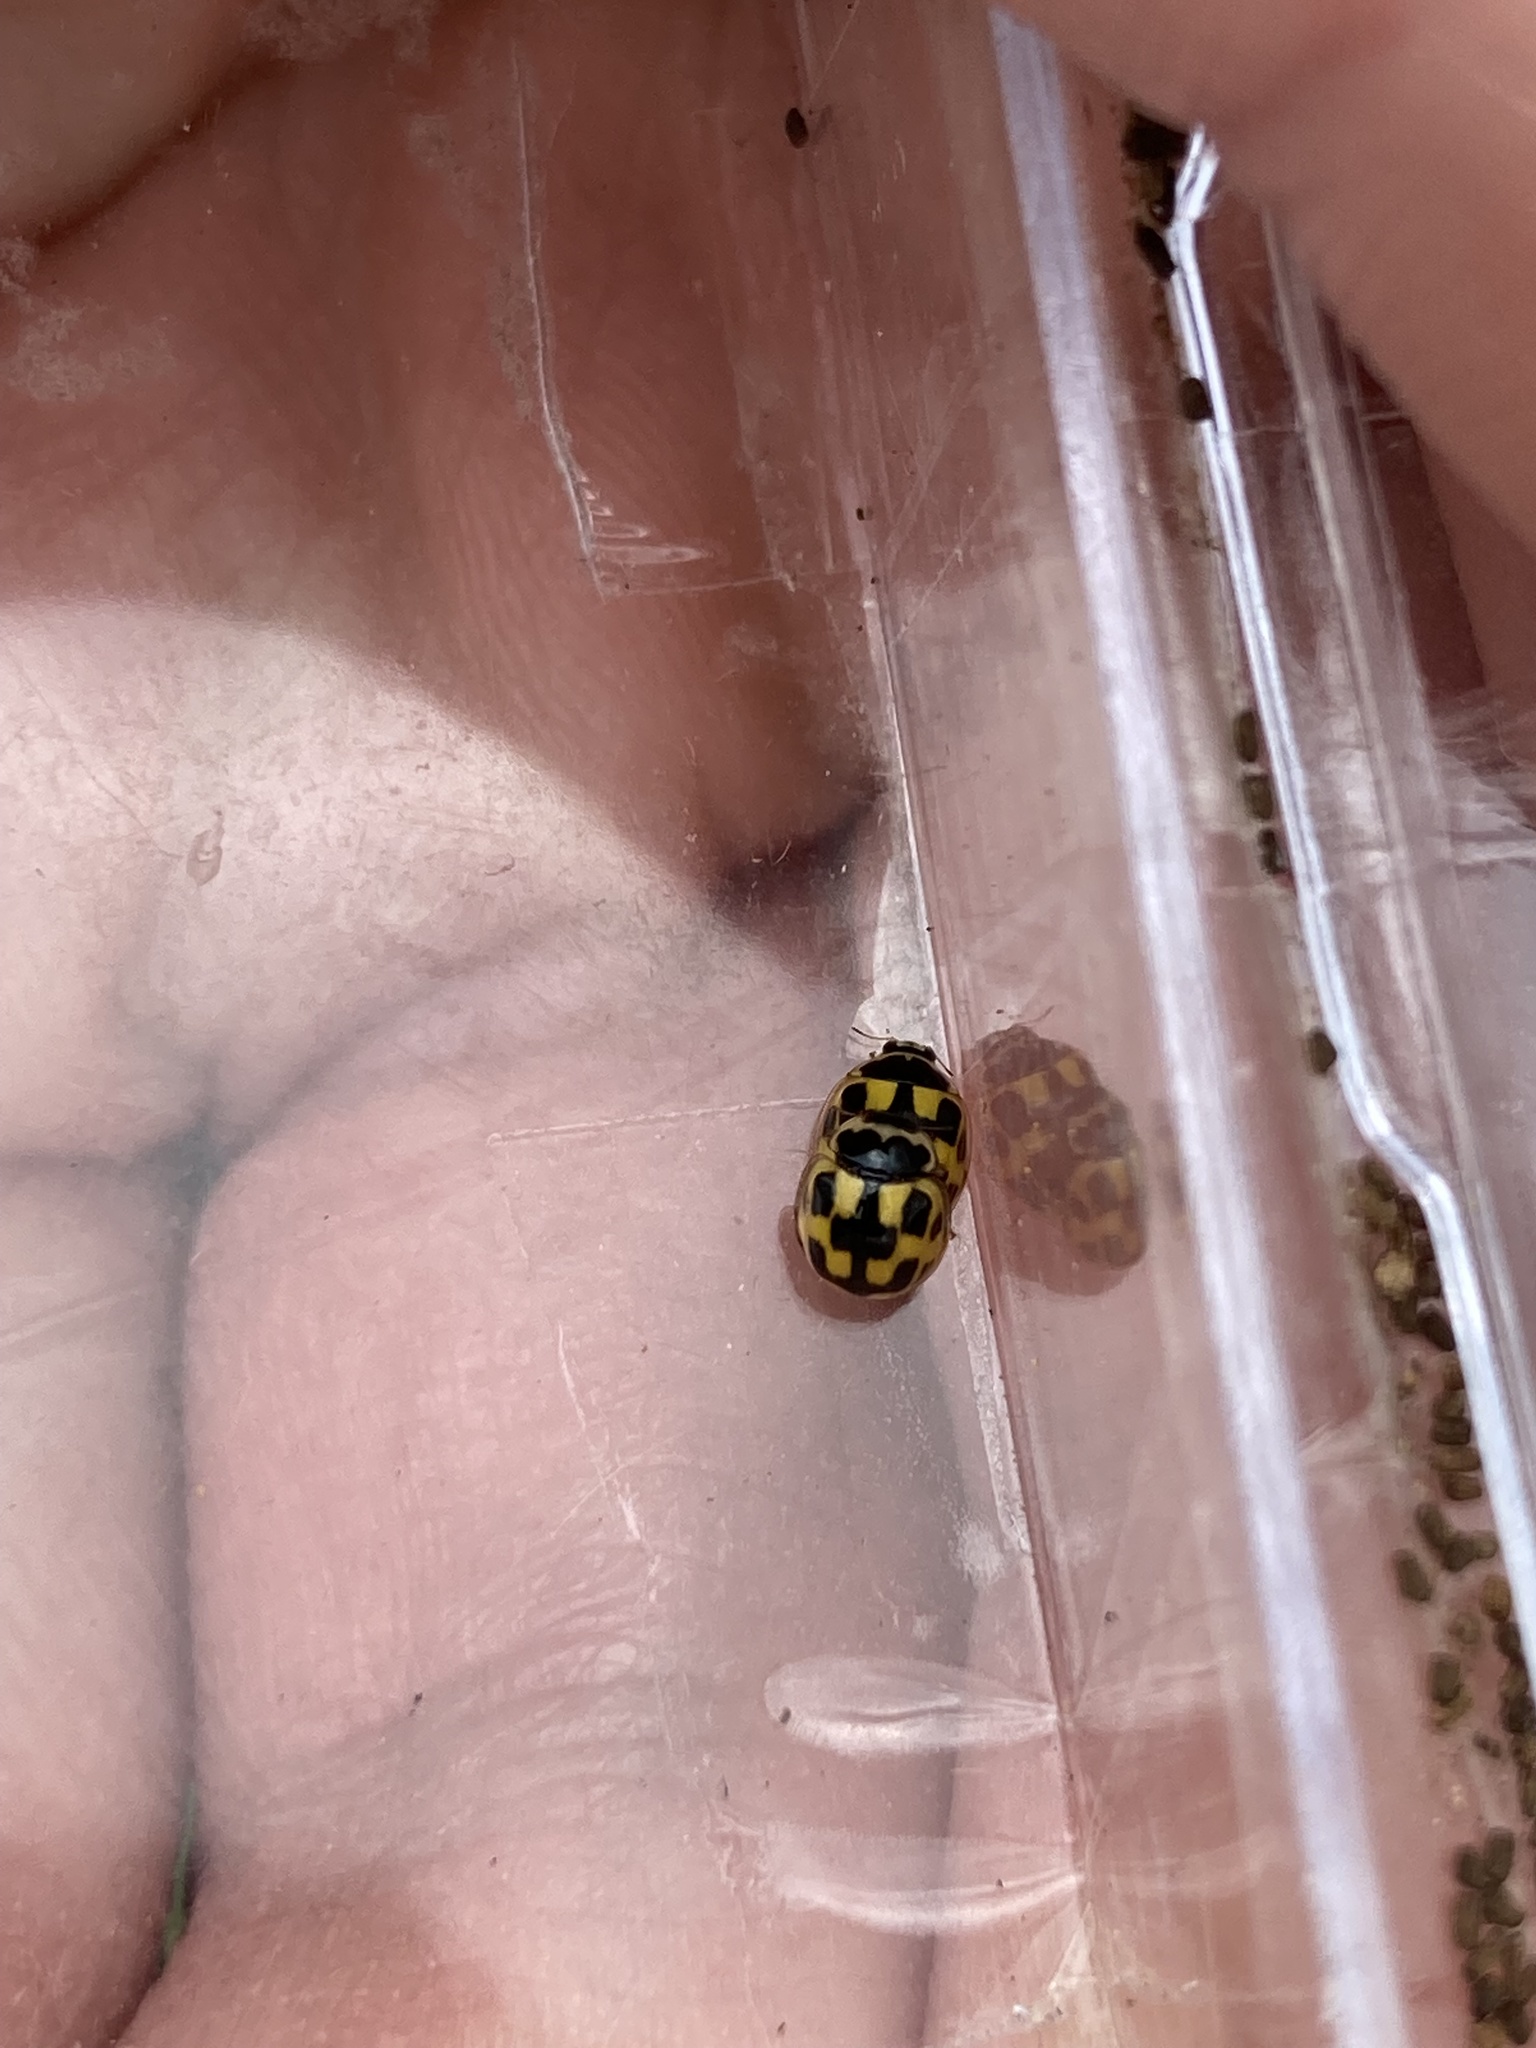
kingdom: Animalia
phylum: Arthropoda
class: Insecta
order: Coleoptera
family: Coccinellidae
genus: Propylaea
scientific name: Propylaea quatuordecimpunctata
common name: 14-spotted ladybird beetle
